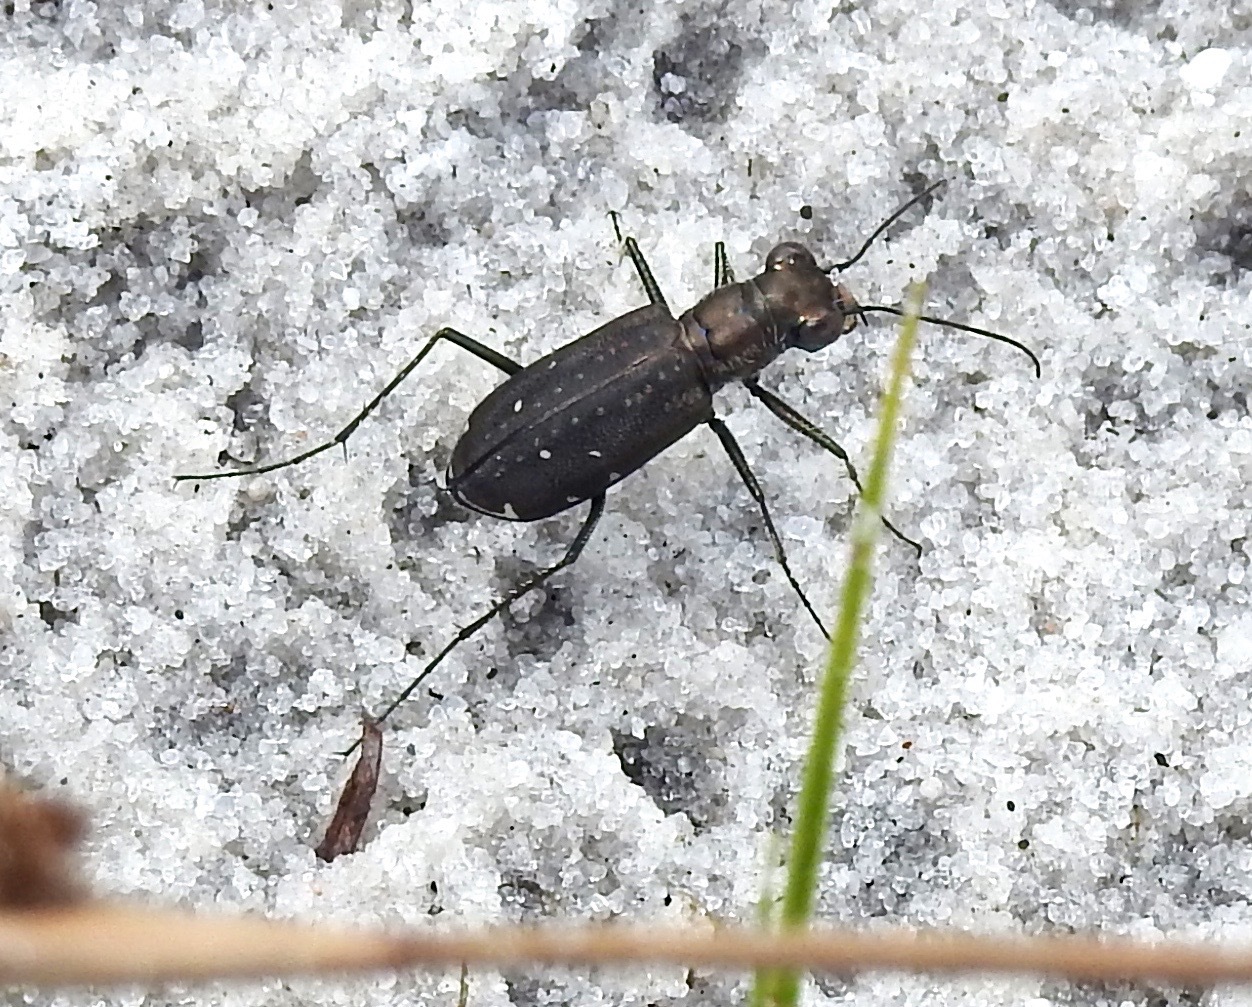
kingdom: Animalia
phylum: Arthropoda
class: Insecta
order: Coleoptera
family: Carabidae
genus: Cicindela
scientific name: Cicindela punctulata
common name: Punctured tiger beetle
